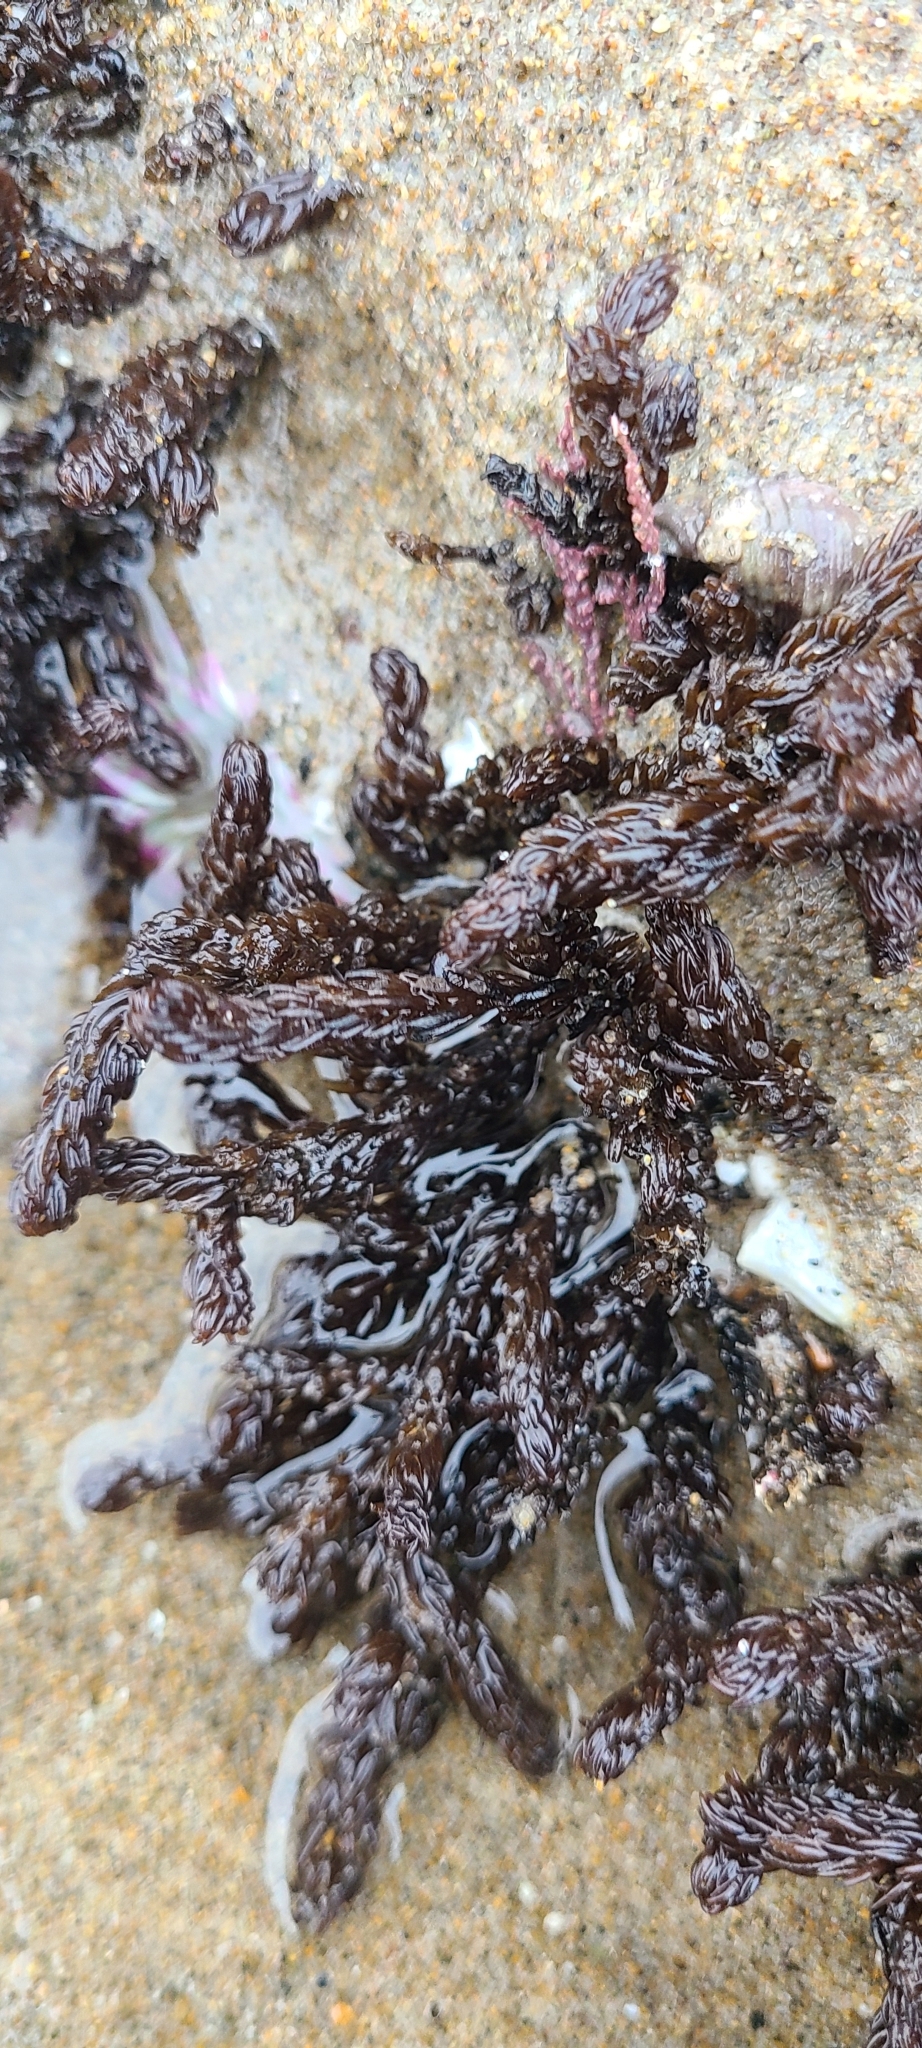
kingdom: Plantae
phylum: Rhodophyta
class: Florideophyceae
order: Ceramiales
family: Rhodomelaceae
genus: Neorhodomela
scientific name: Neorhodomela larix
